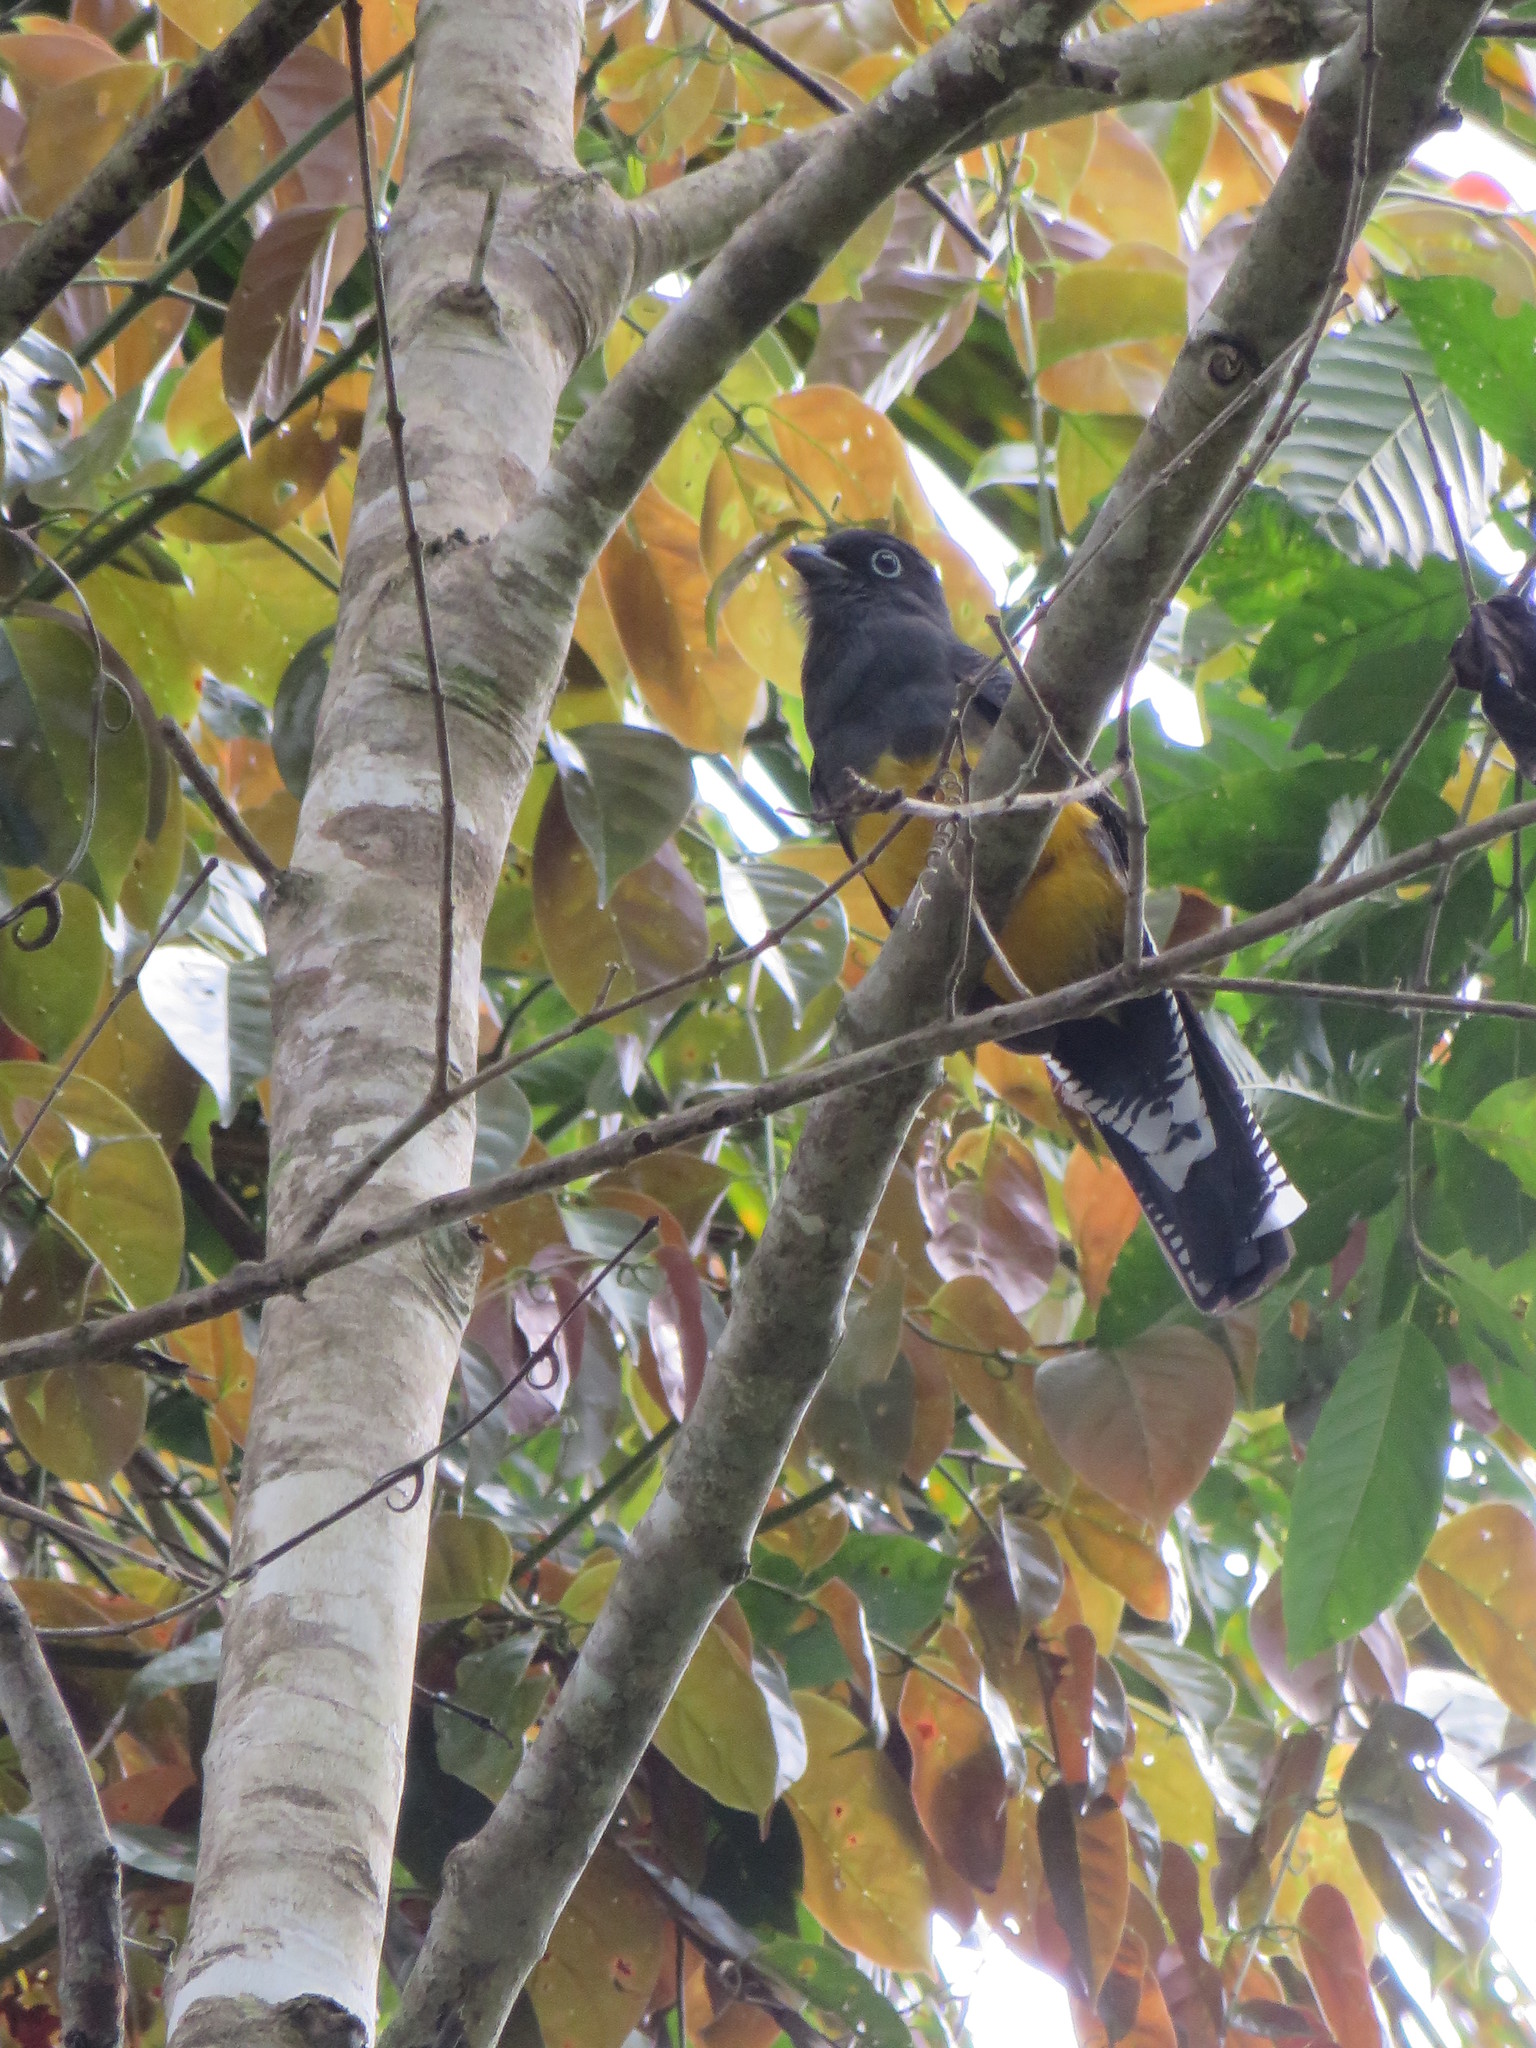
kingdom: Animalia
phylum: Chordata
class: Aves
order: Trogoniformes
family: Trogonidae
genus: Trogon
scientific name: Trogon viridis
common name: Green-backed trogon
